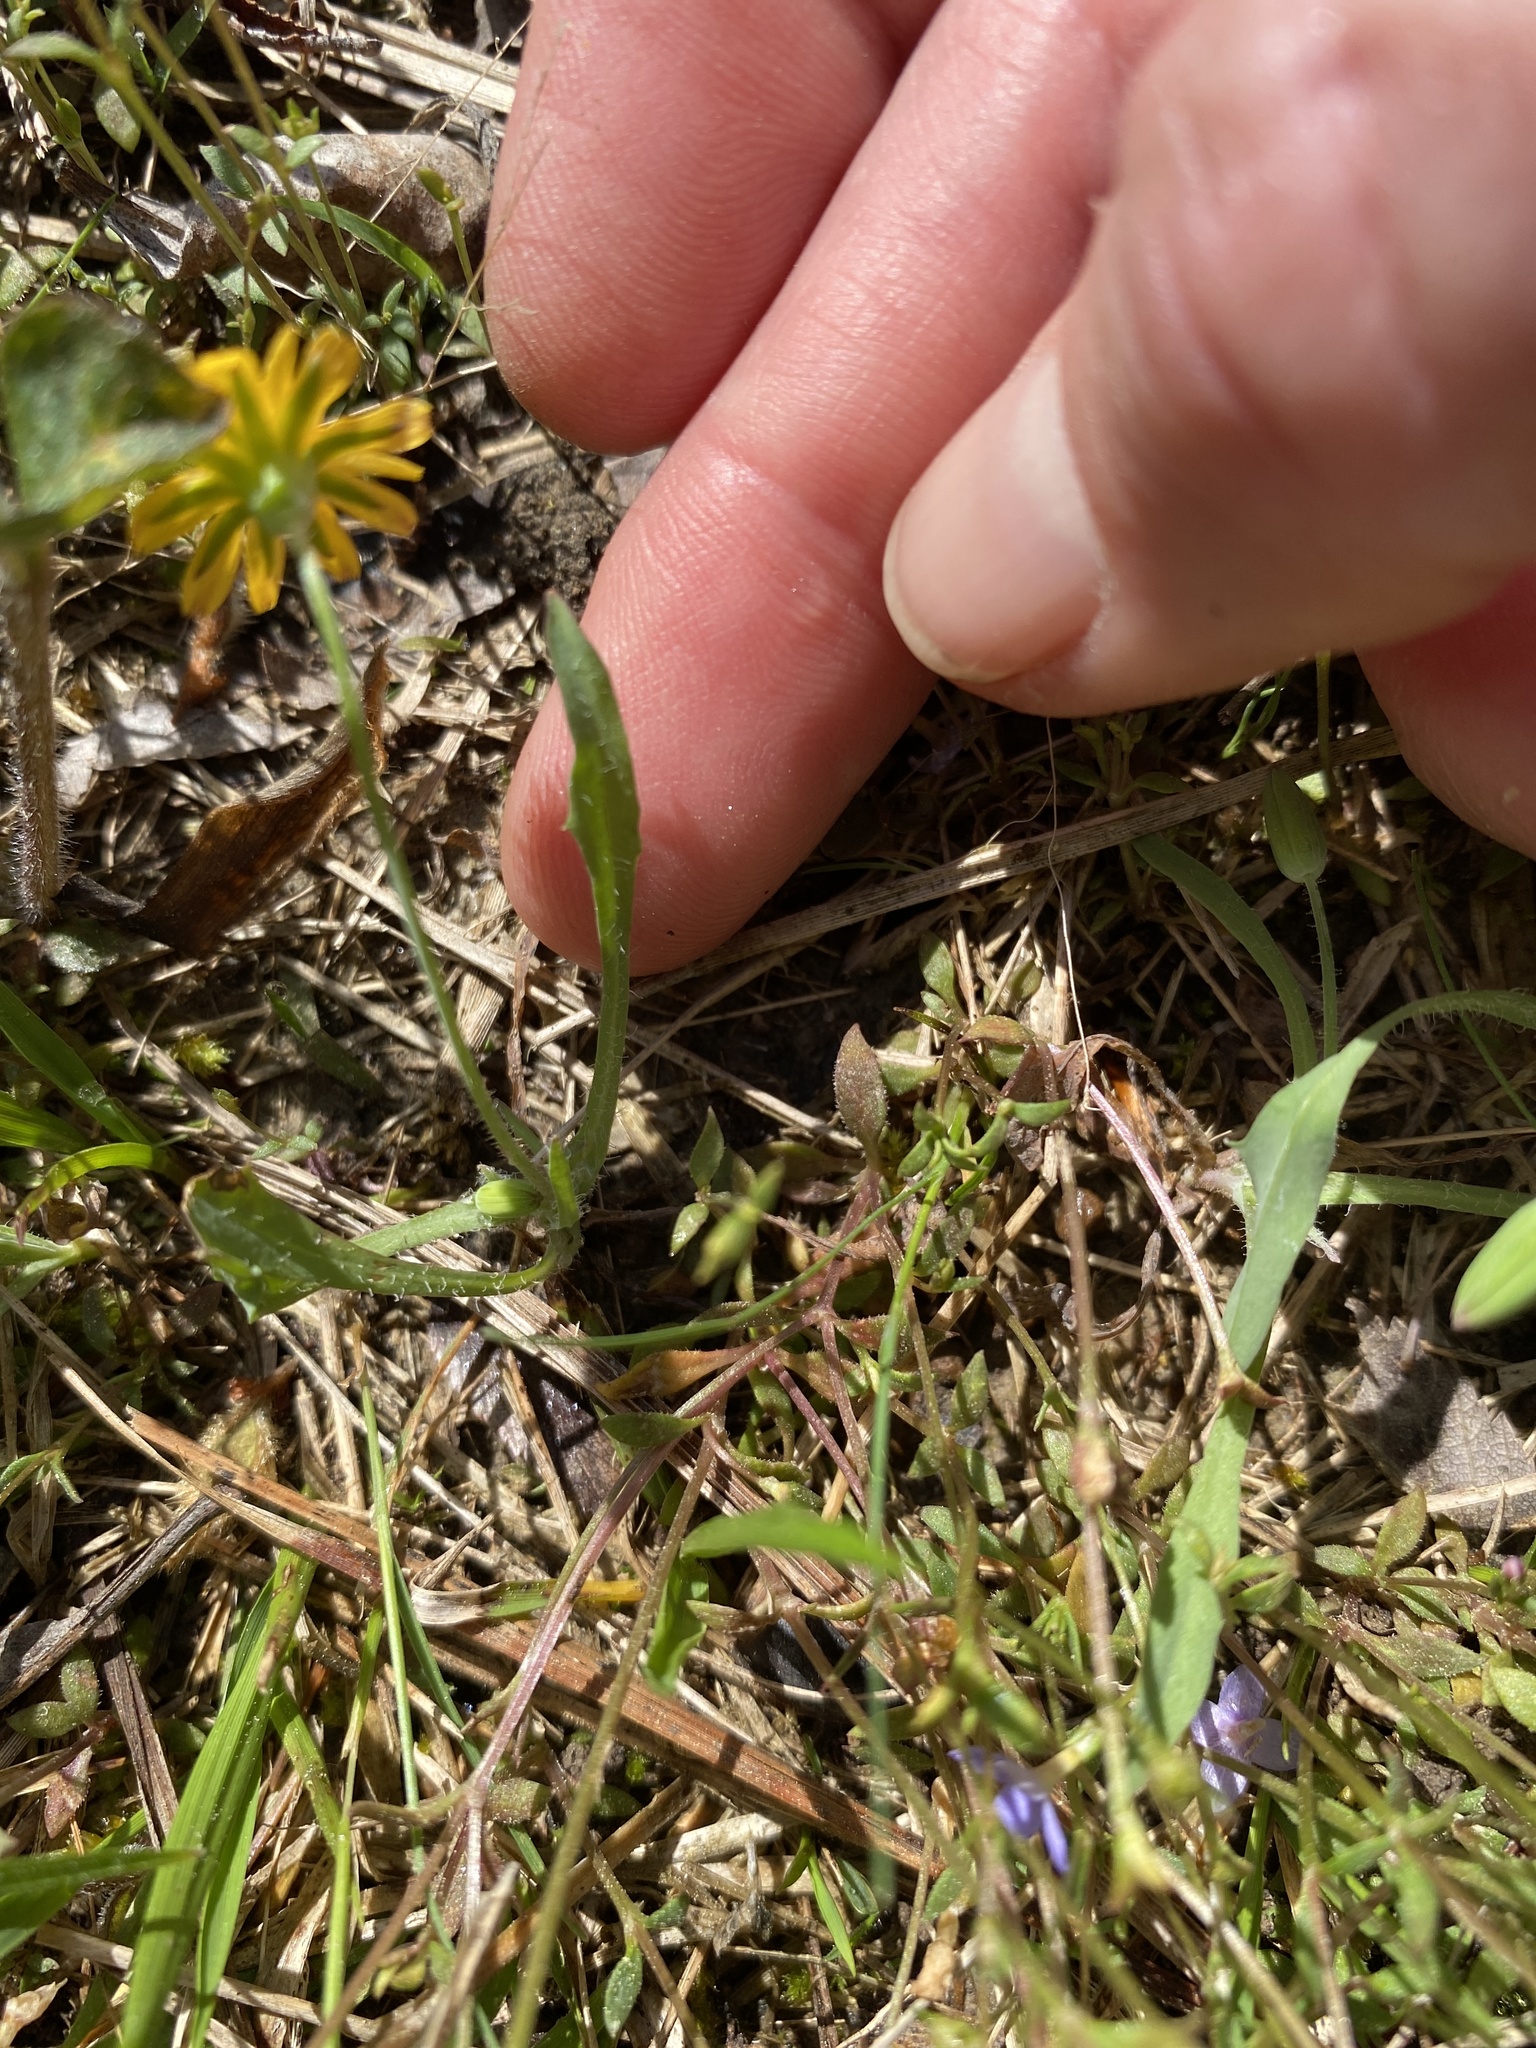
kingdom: Plantae
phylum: Tracheophyta
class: Magnoliopsida
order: Asterales
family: Asteraceae
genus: Krigia
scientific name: Krigia virginica
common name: Virginia dwarf-dandelion
